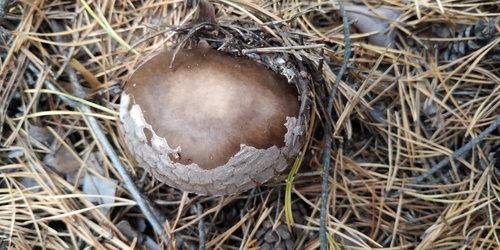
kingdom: Fungi
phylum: Basidiomycota
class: Agaricomycetes
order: Agaricales
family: Amanitaceae
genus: Amanita
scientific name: Amanita porphyria
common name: Grey veiled amanita
